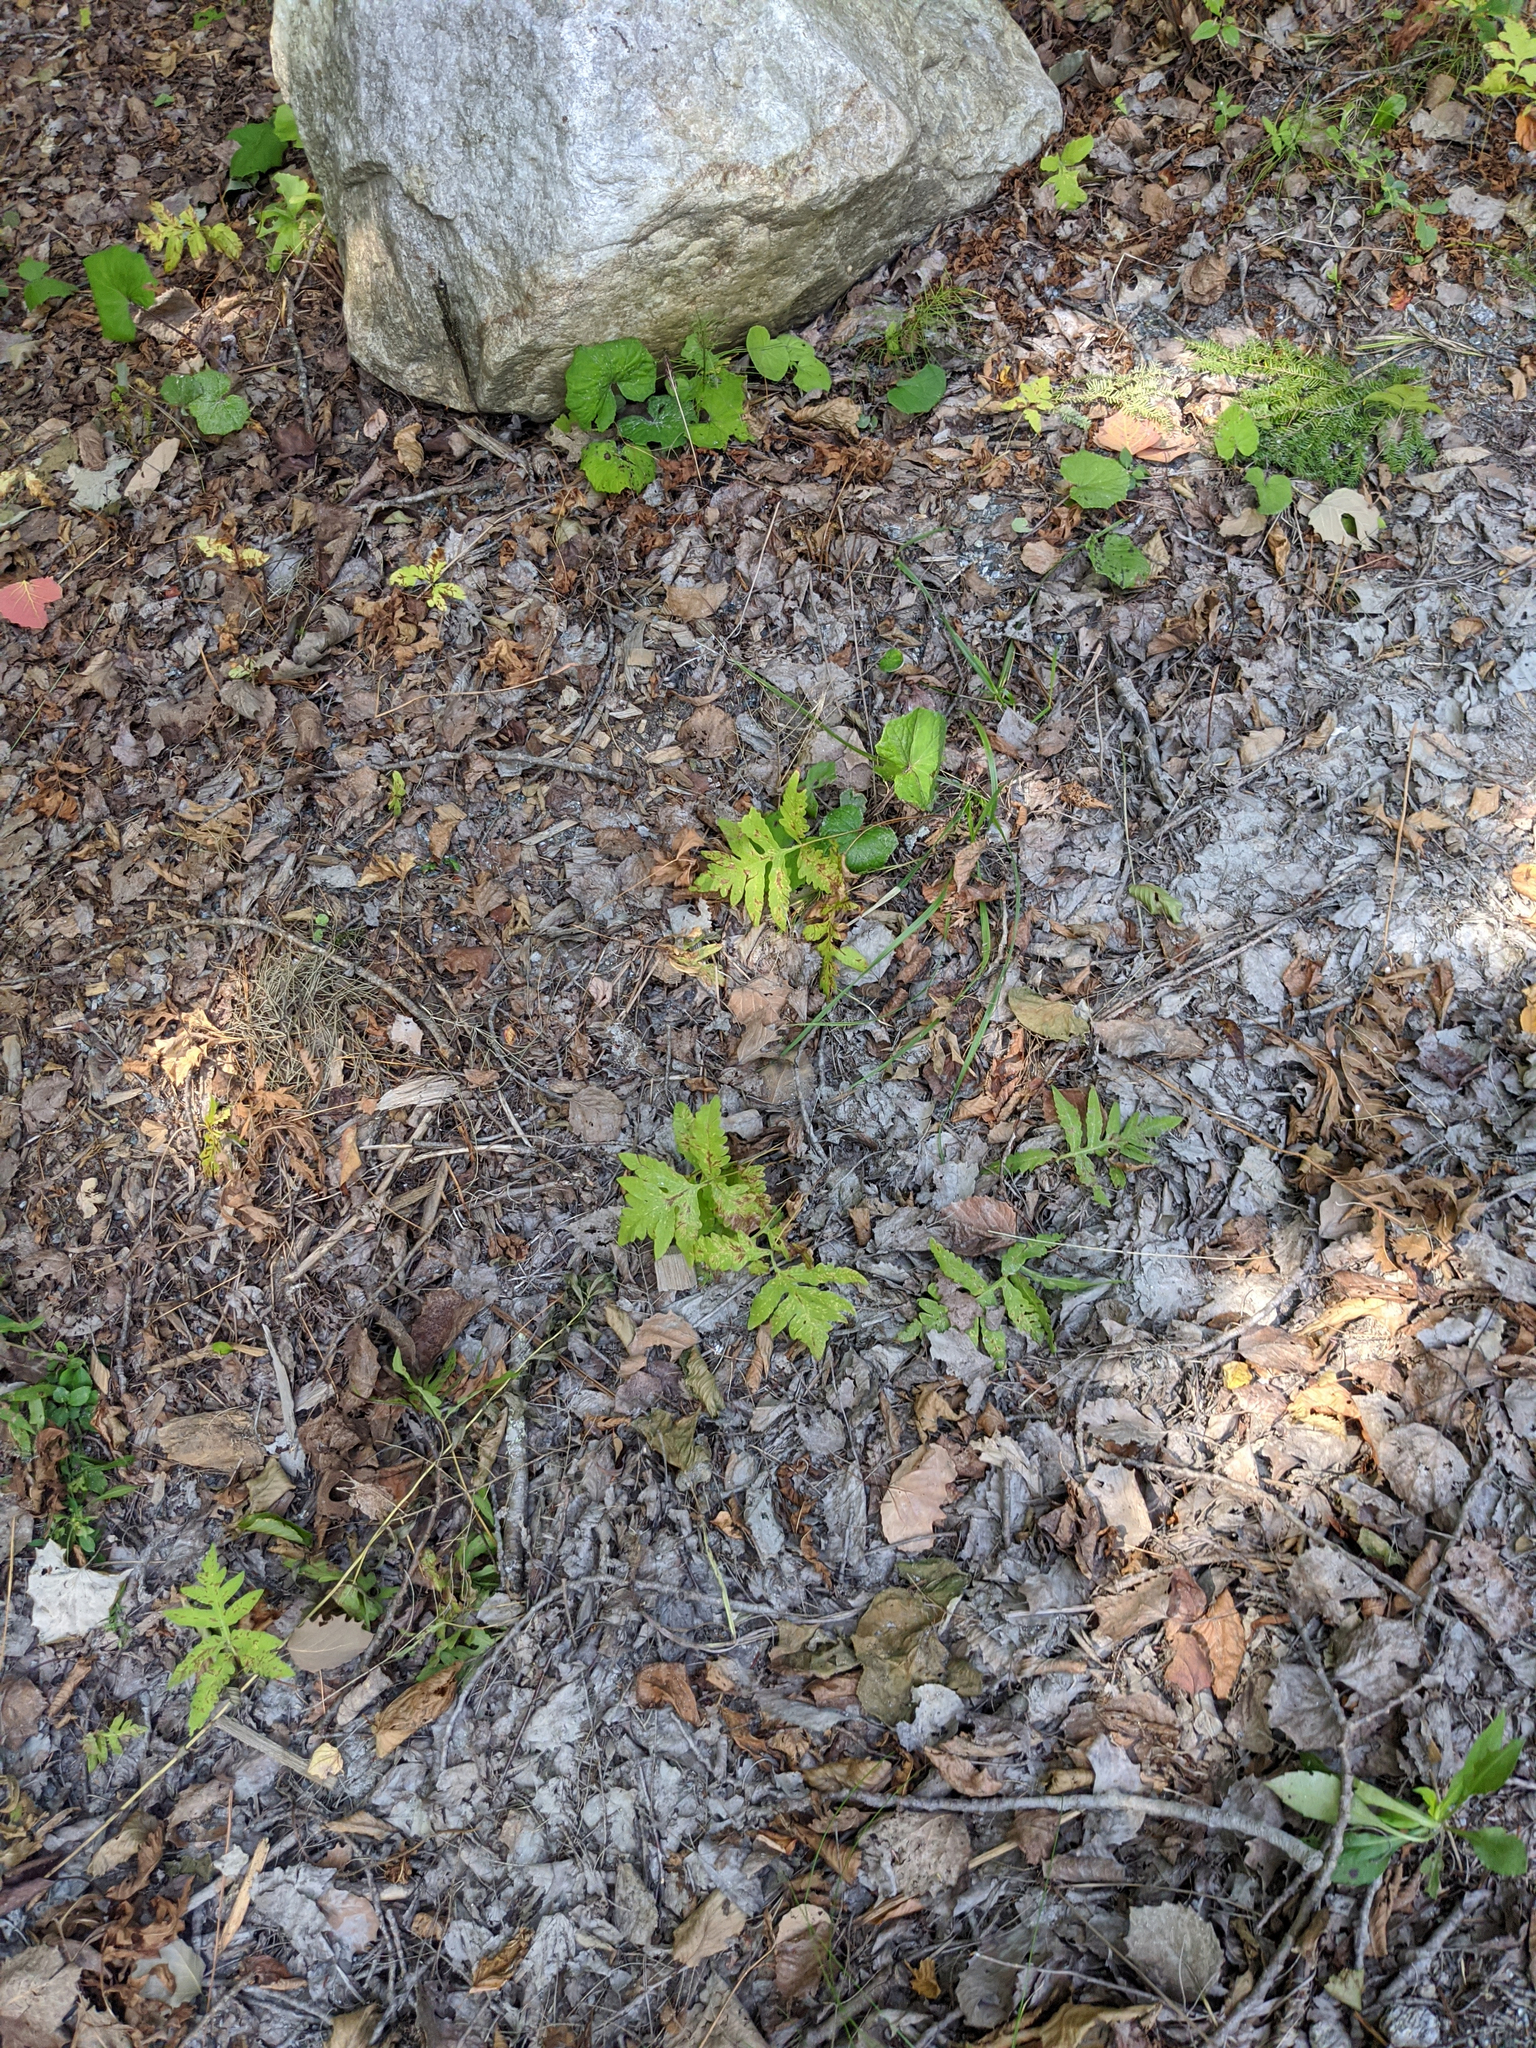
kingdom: Plantae
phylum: Tracheophyta
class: Polypodiopsida
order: Polypodiales
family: Onocleaceae
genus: Onoclea
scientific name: Onoclea sensibilis
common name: Sensitive fern
